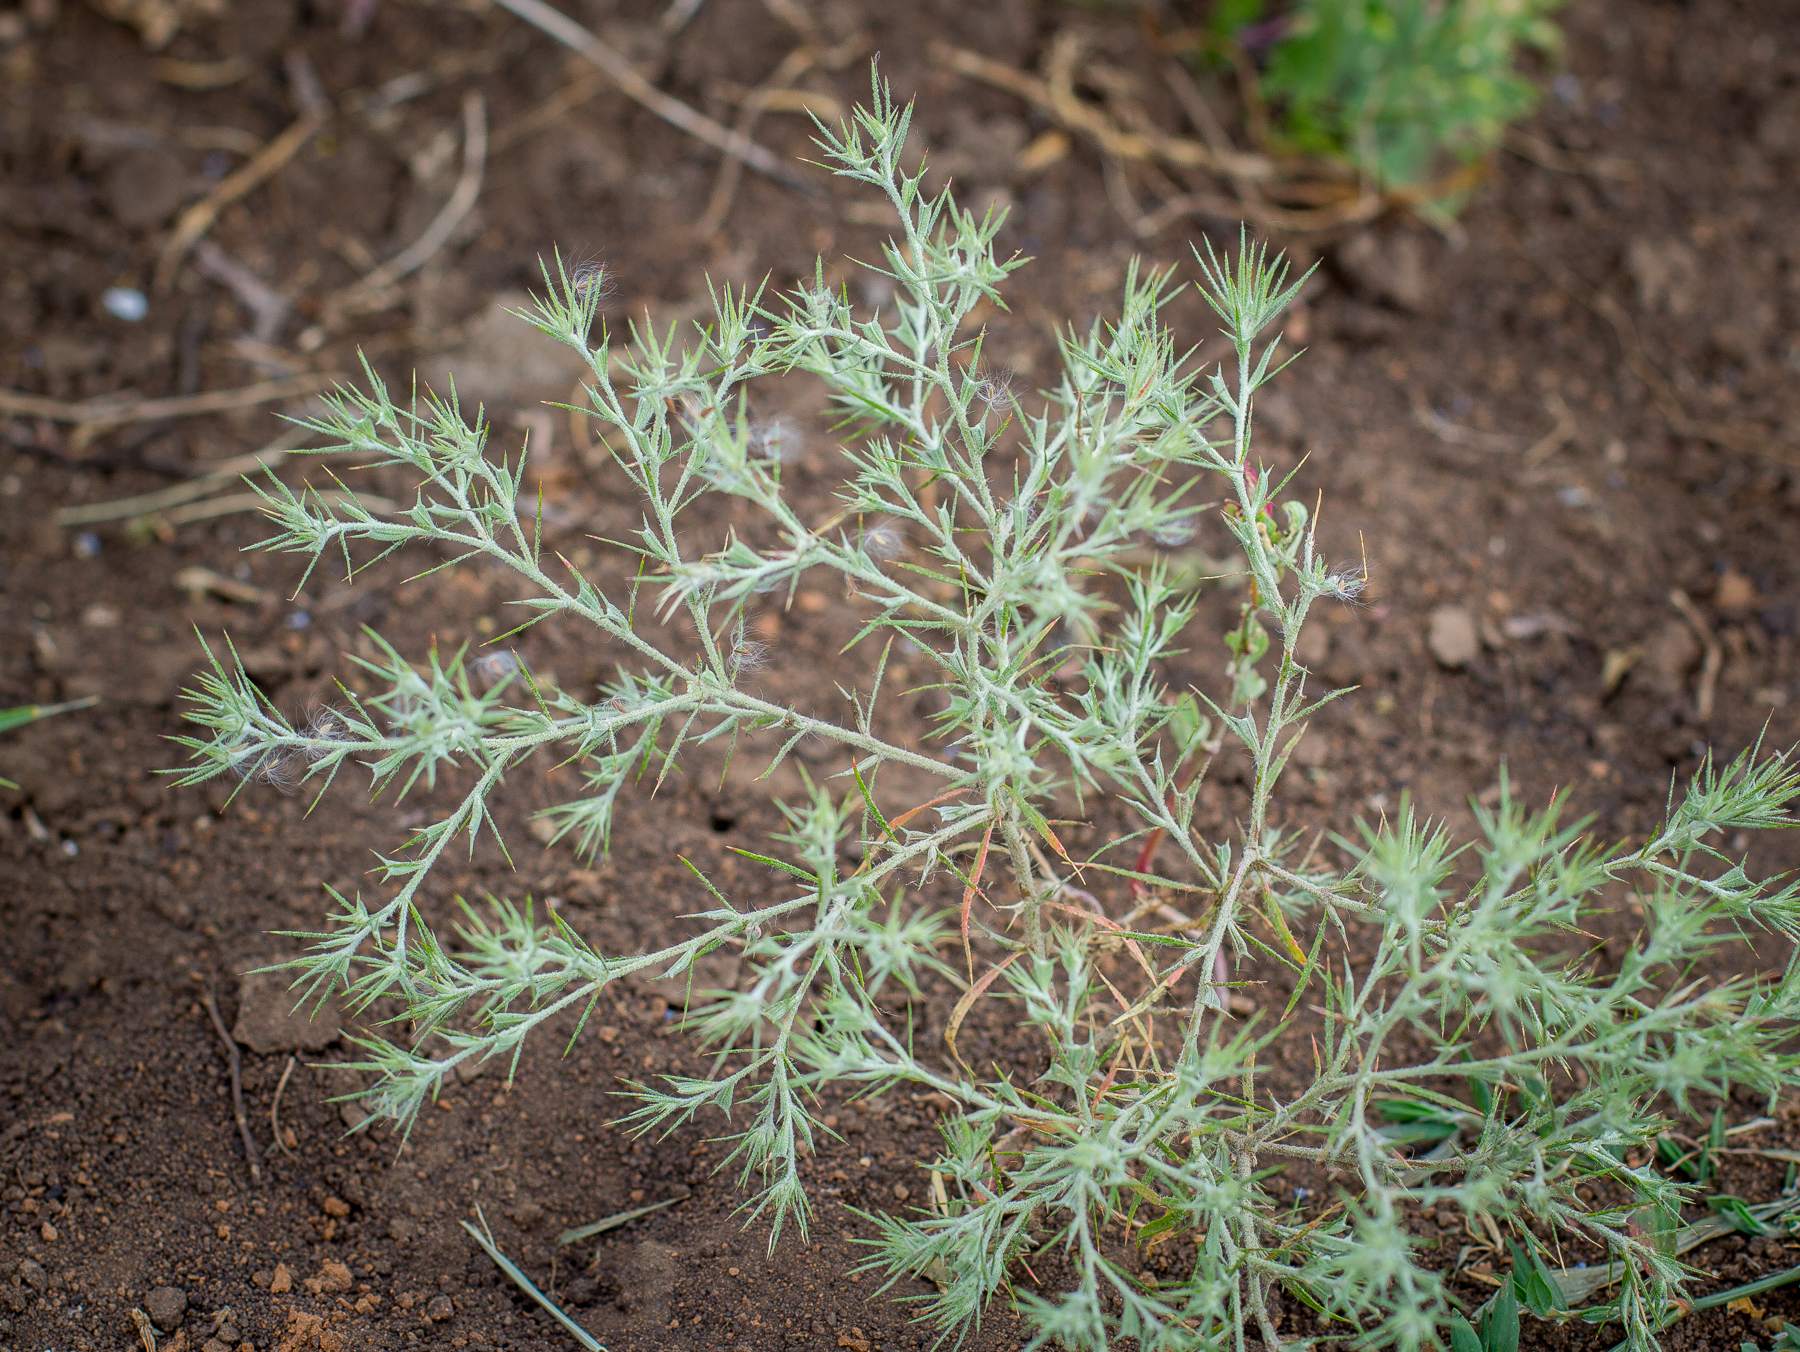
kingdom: Plantae
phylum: Tracheophyta
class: Magnoliopsida
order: Caryophyllales
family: Amaranthaceae
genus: Ceratocarpus
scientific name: Ceratocarpus arenarius
